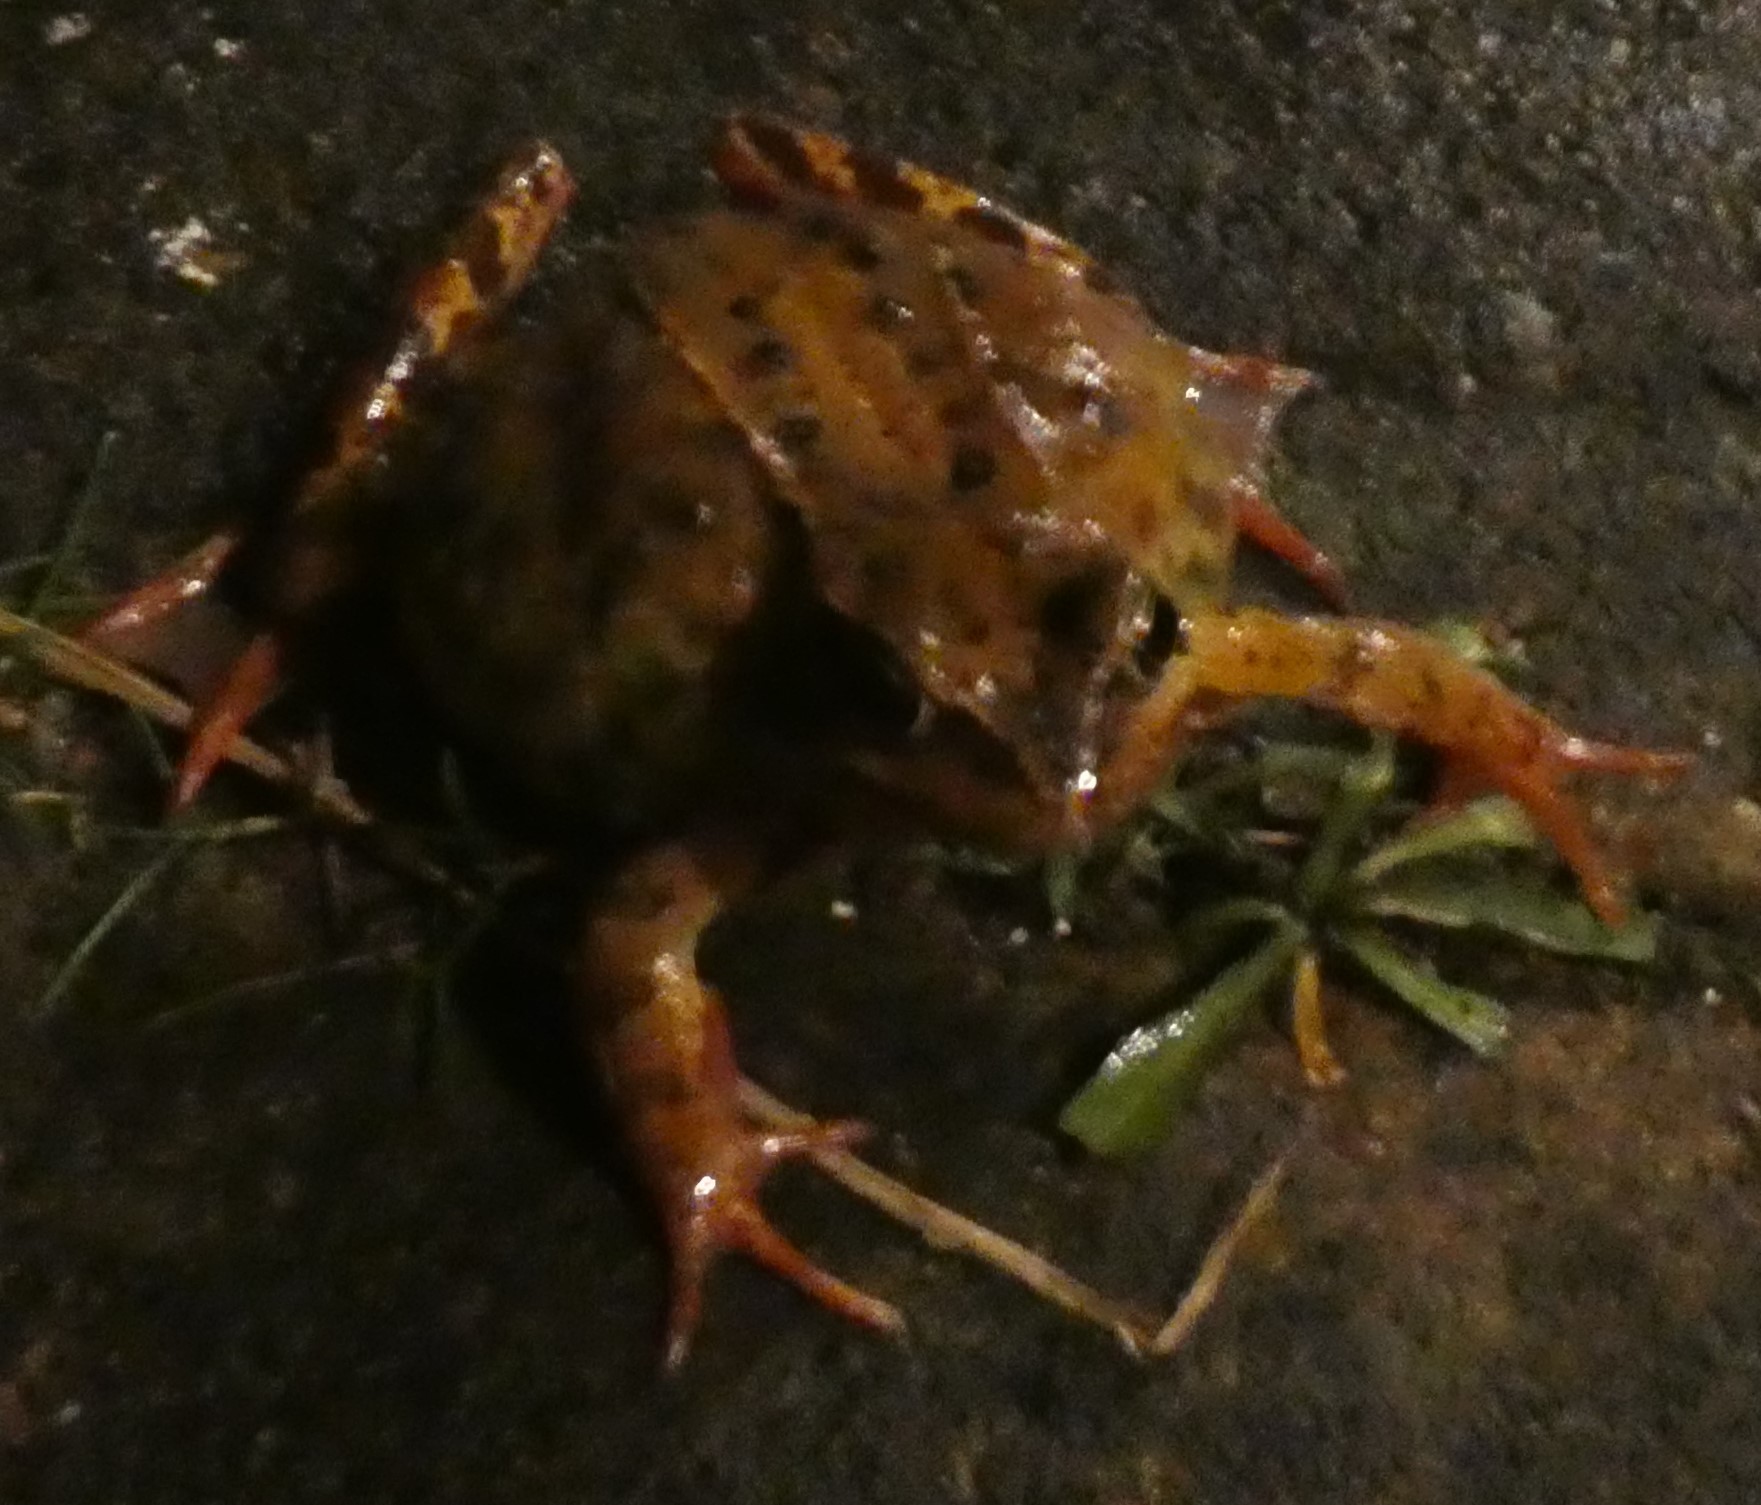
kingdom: Animalia
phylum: Chordata
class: Amphibia
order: Anura
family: Ranidae
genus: Rana
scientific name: Rana temporaria
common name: Common frog
